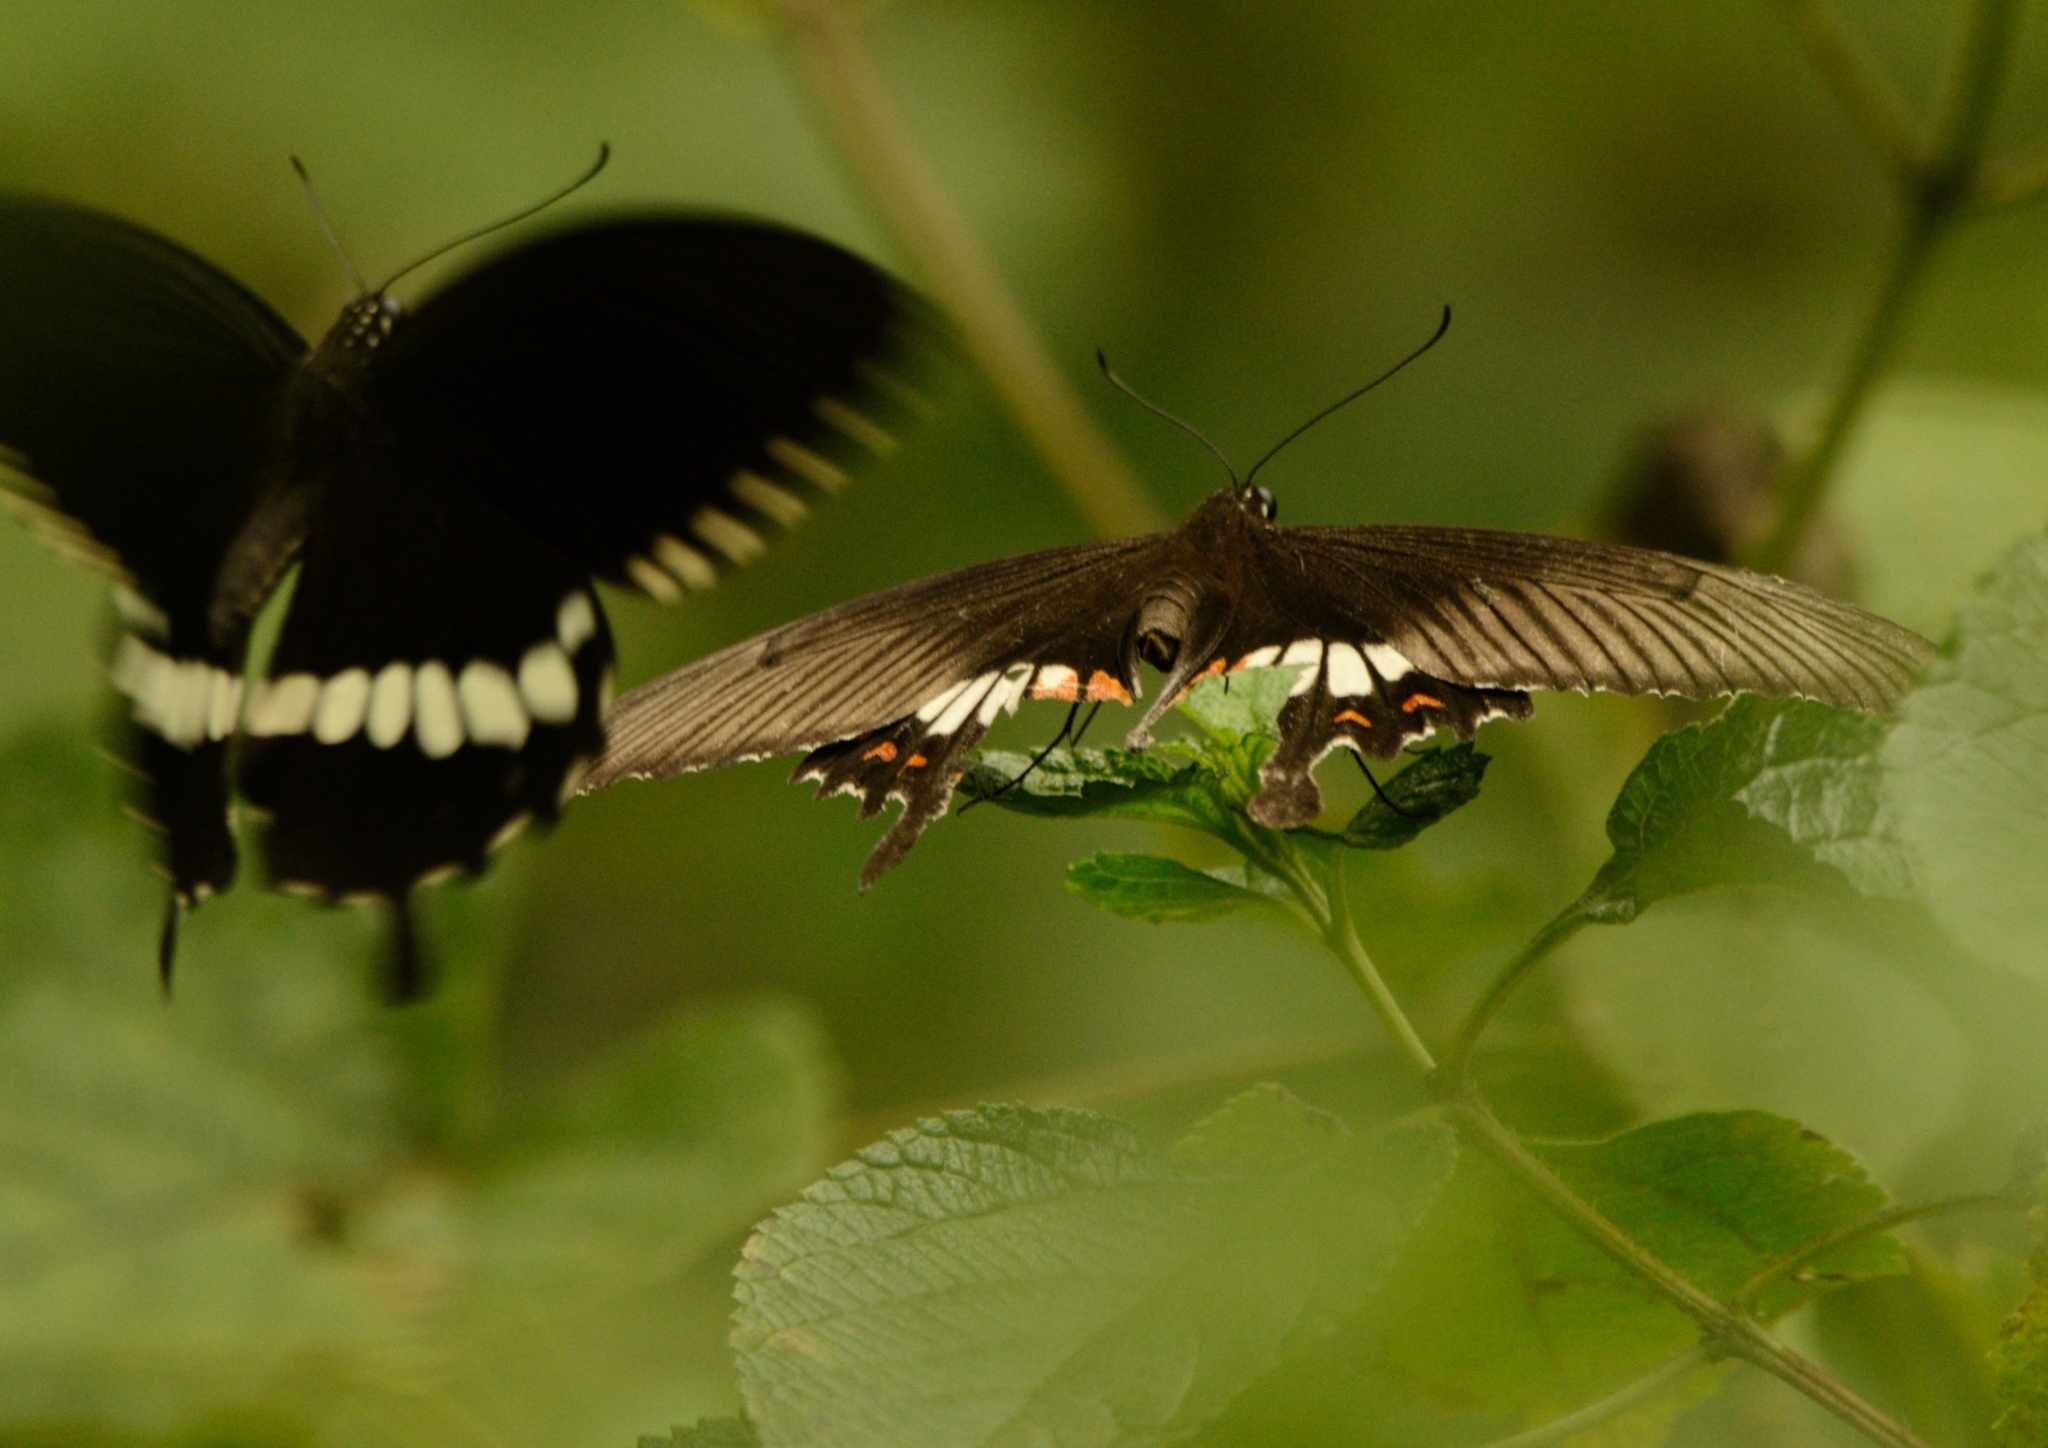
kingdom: Animalia
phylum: Arthropoda
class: Insecta
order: Lepidoptera
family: Papilionidae
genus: Papilio
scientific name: Papilio polytes
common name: Common mormon
